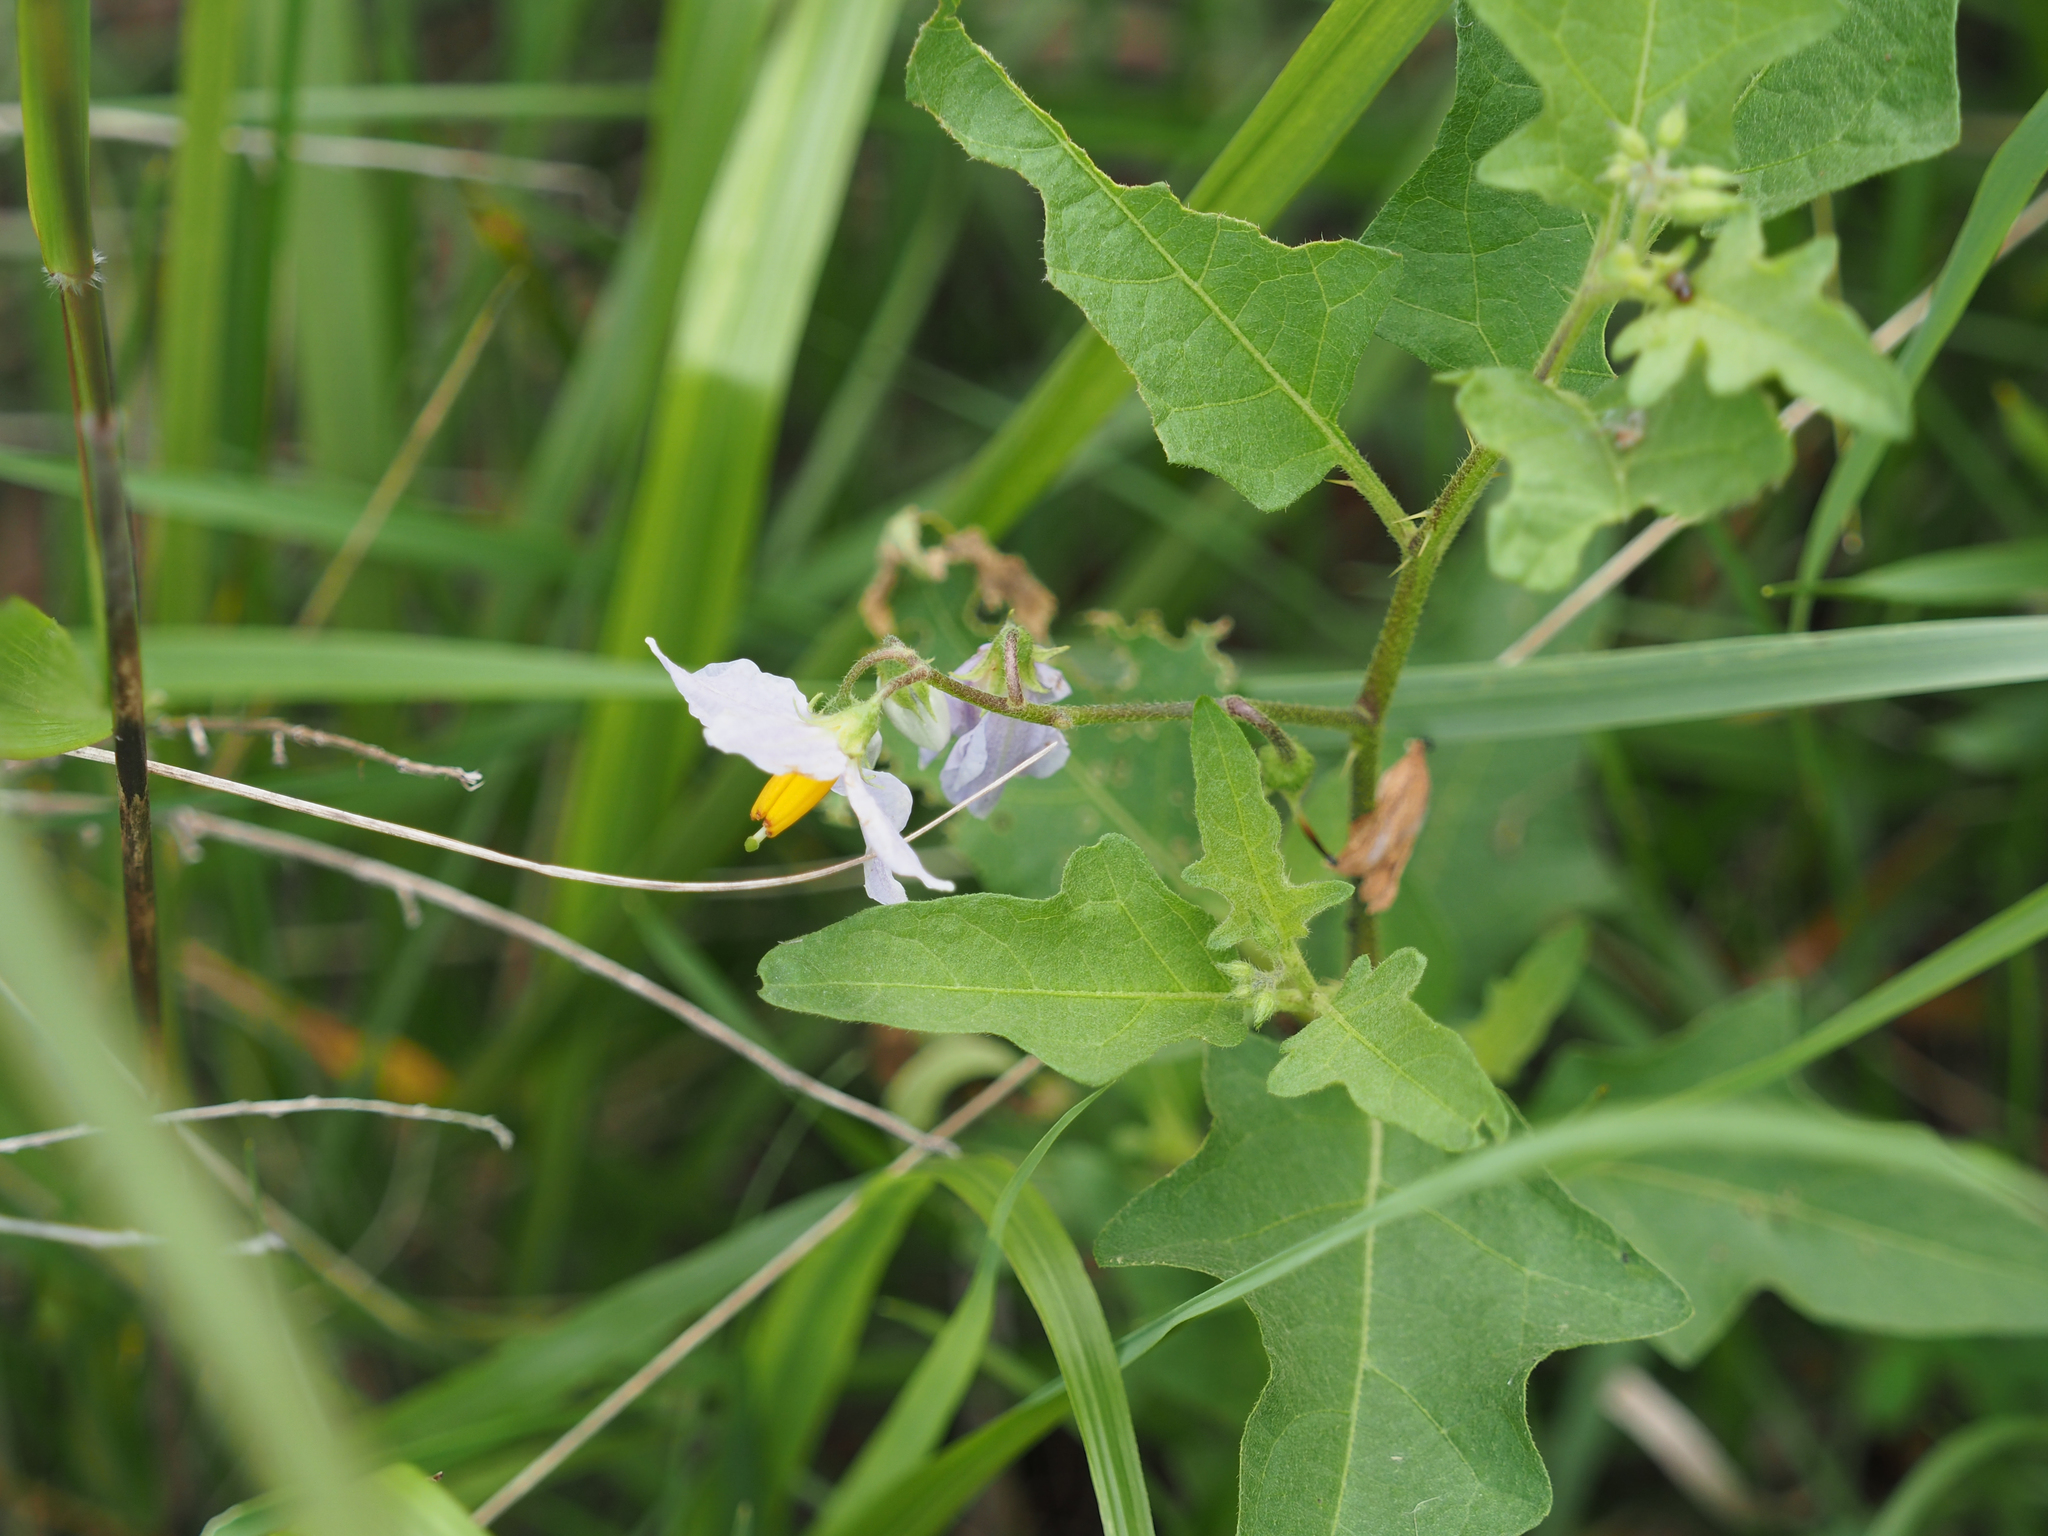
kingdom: Plantae
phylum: Tracheophyta
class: Magnoliopsida
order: Solanales
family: Solanaceae
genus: Solanum
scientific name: Solanum carolinense
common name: Horse-nettle
